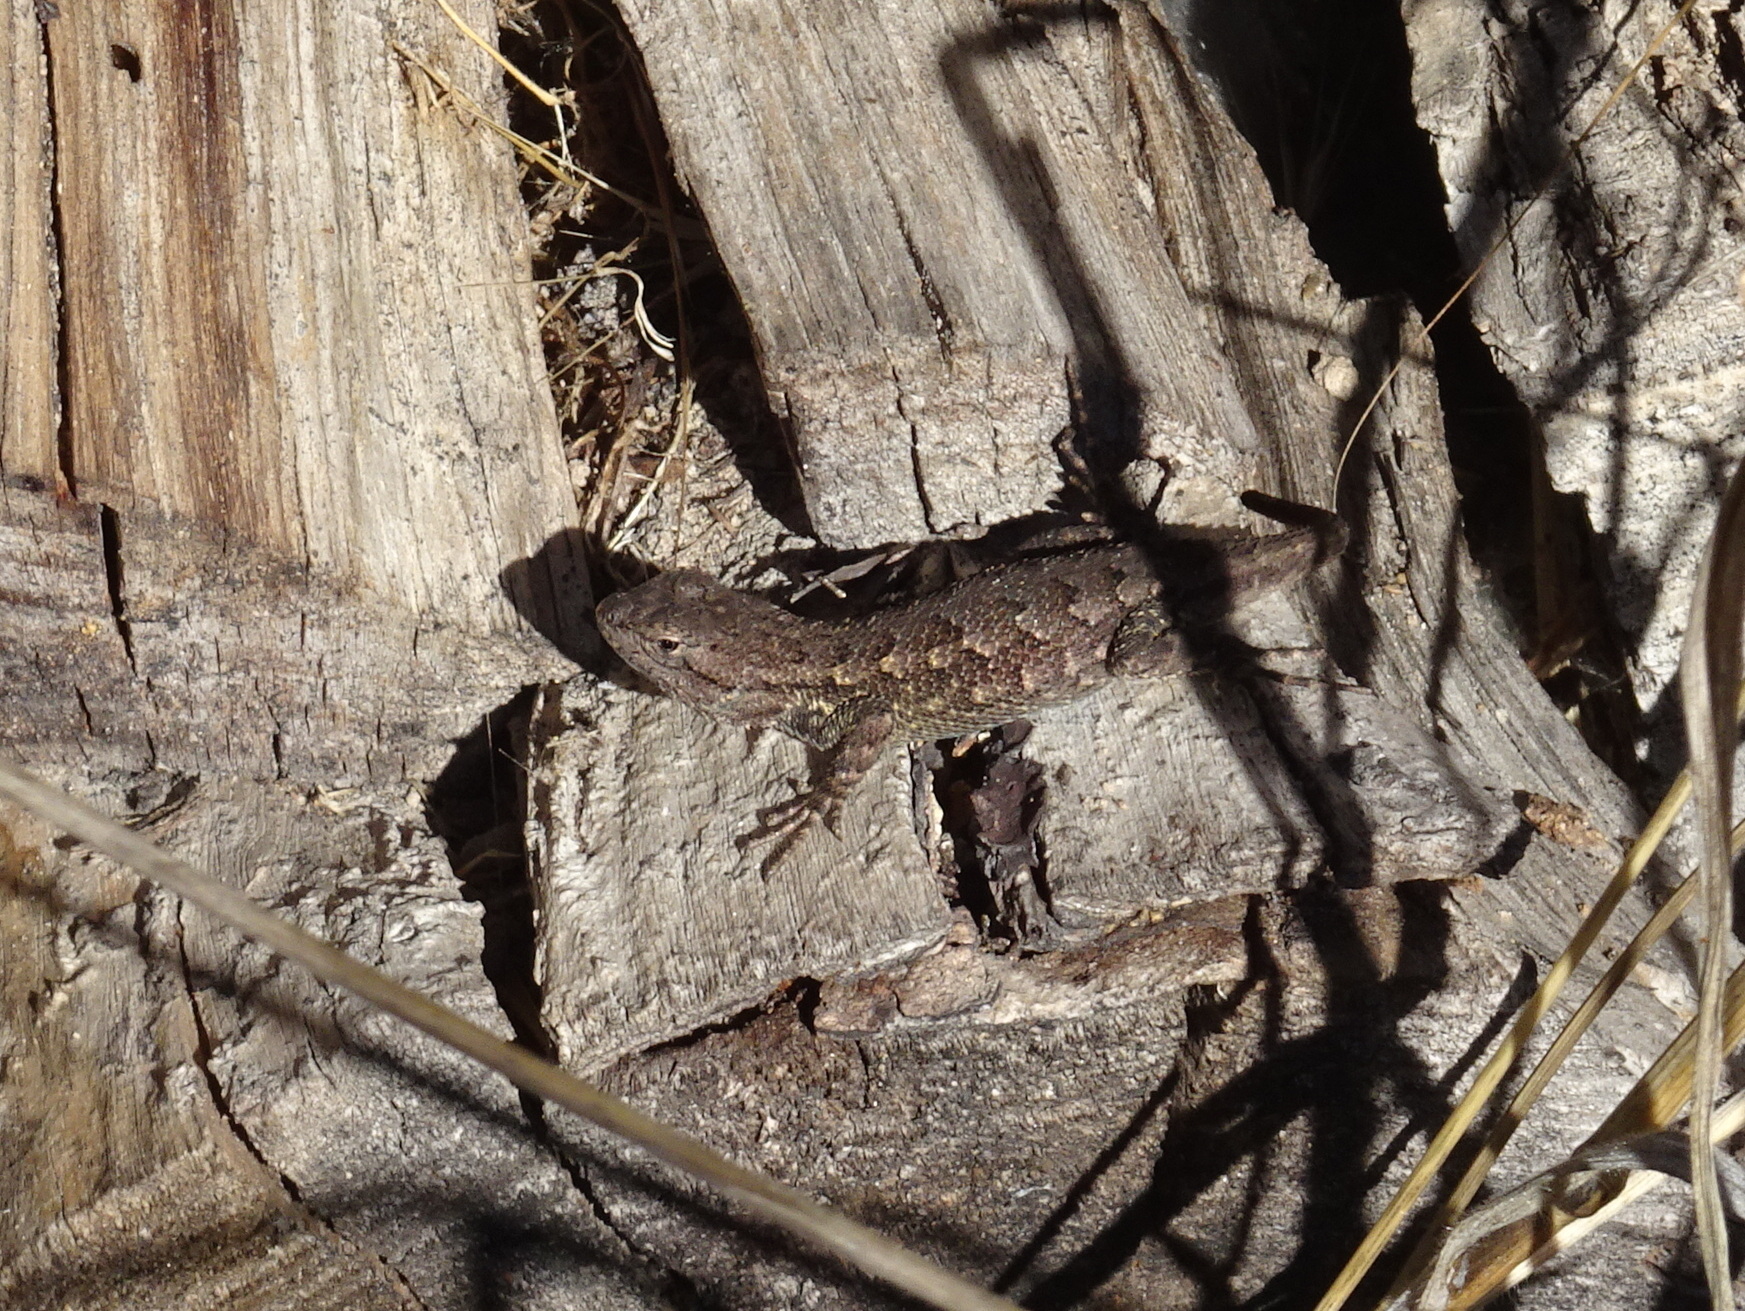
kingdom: Animalia
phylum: Chordata
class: Squamata
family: Phrynosomatidae
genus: Sceloporus
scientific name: Sceloporus occidentalis
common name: Western fence lizard
